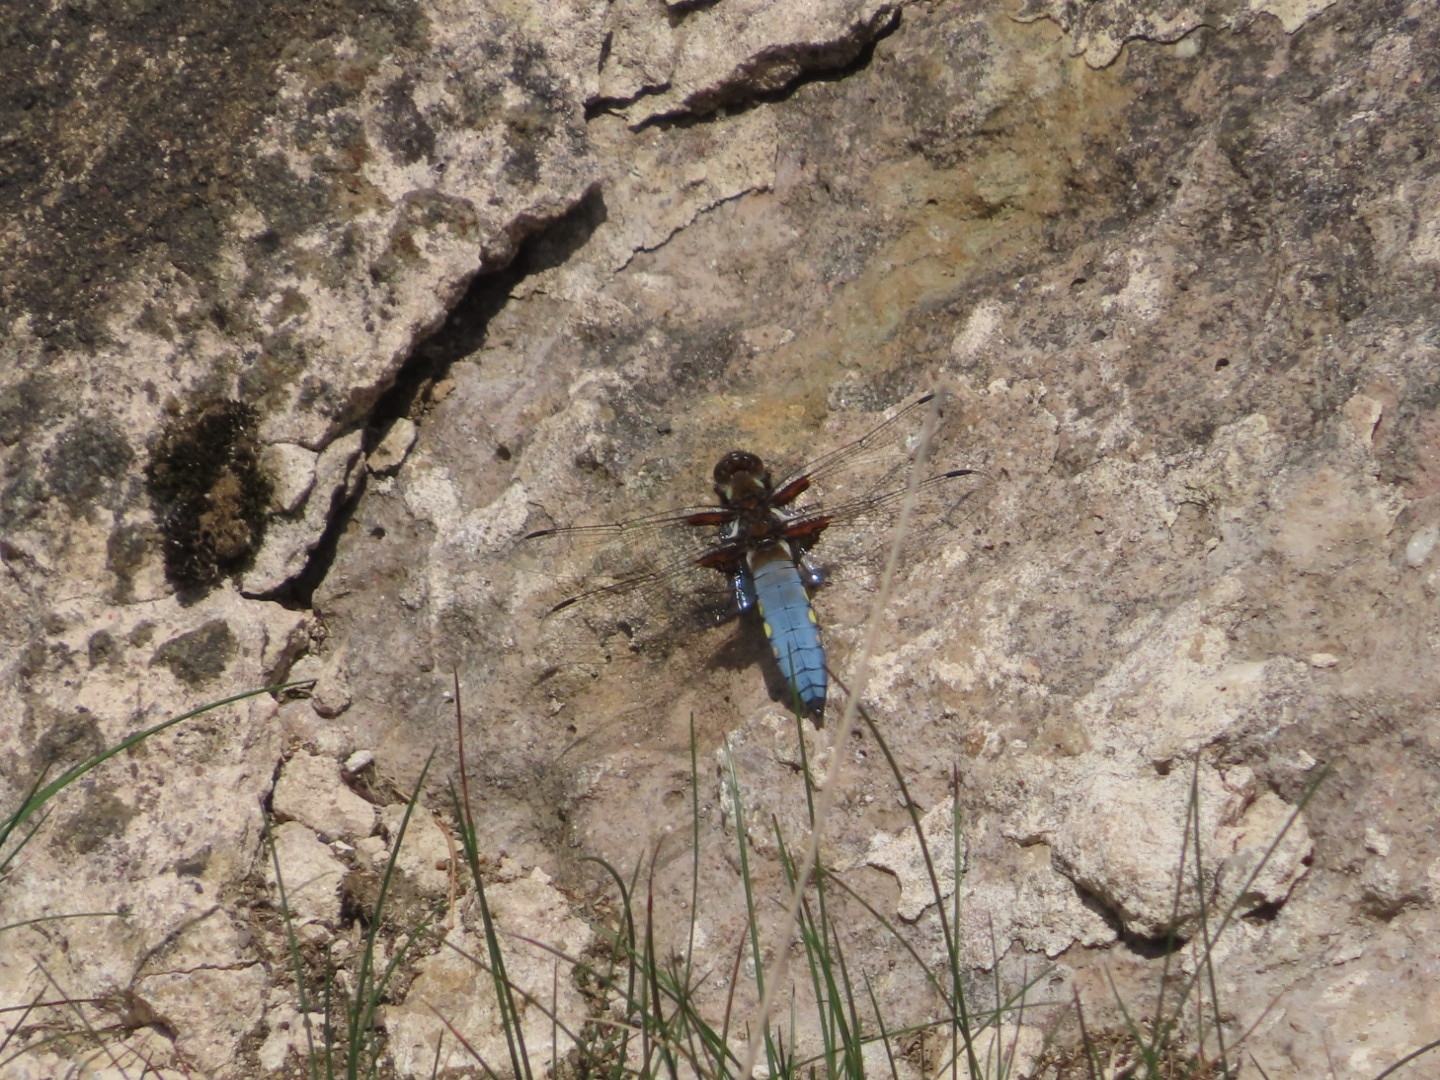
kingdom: Animalia
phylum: Arthropoda
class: Insecta
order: Odonata
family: Libellulidae
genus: Libellula
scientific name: Libellula depressa
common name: Broad-bodied chaser
